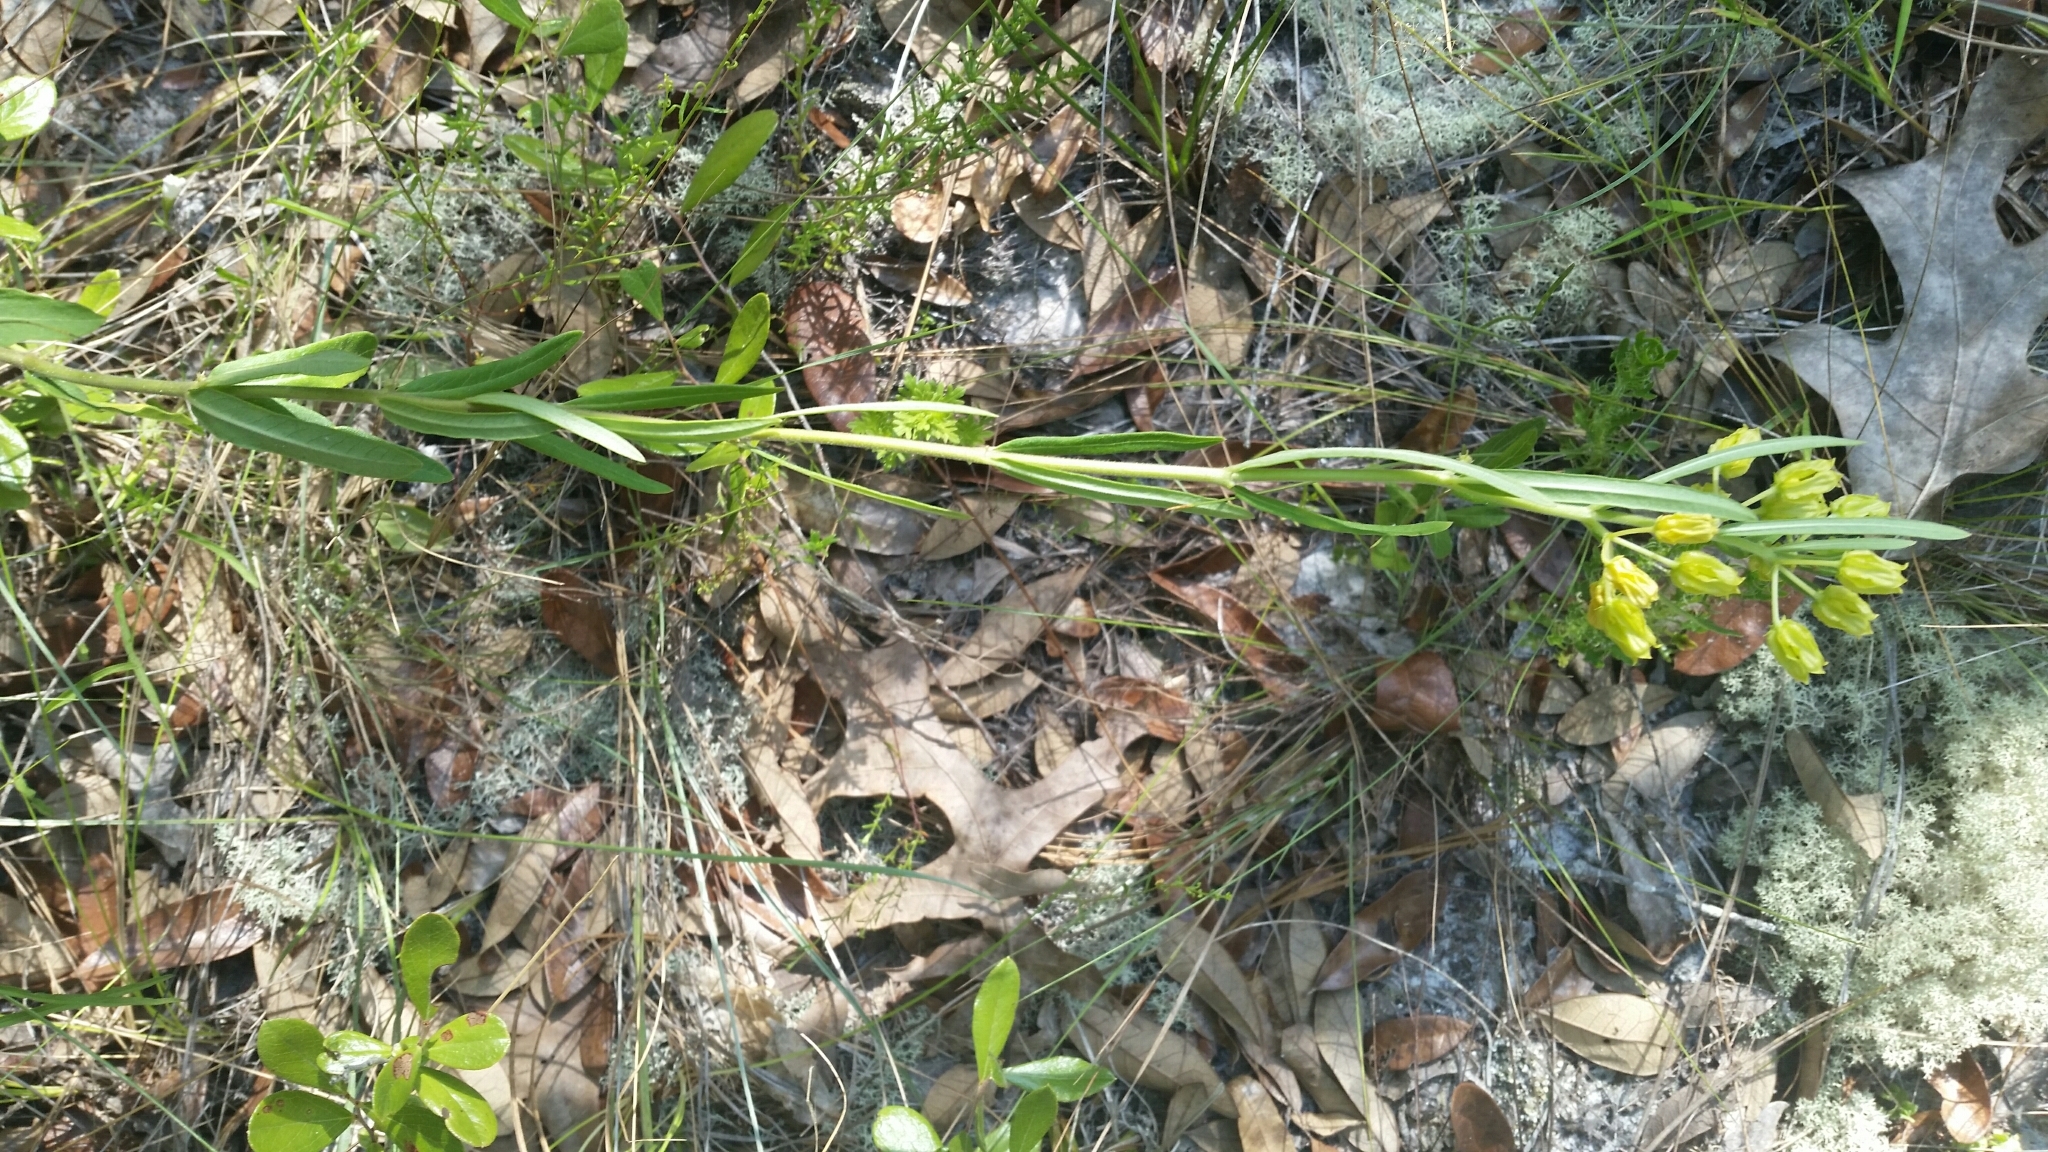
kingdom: Plantae
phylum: Tracheophyta
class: Magnoliopsida
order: Gentianales
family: Apocynaceae
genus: Asclepias
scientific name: Asclepias pedicellata
